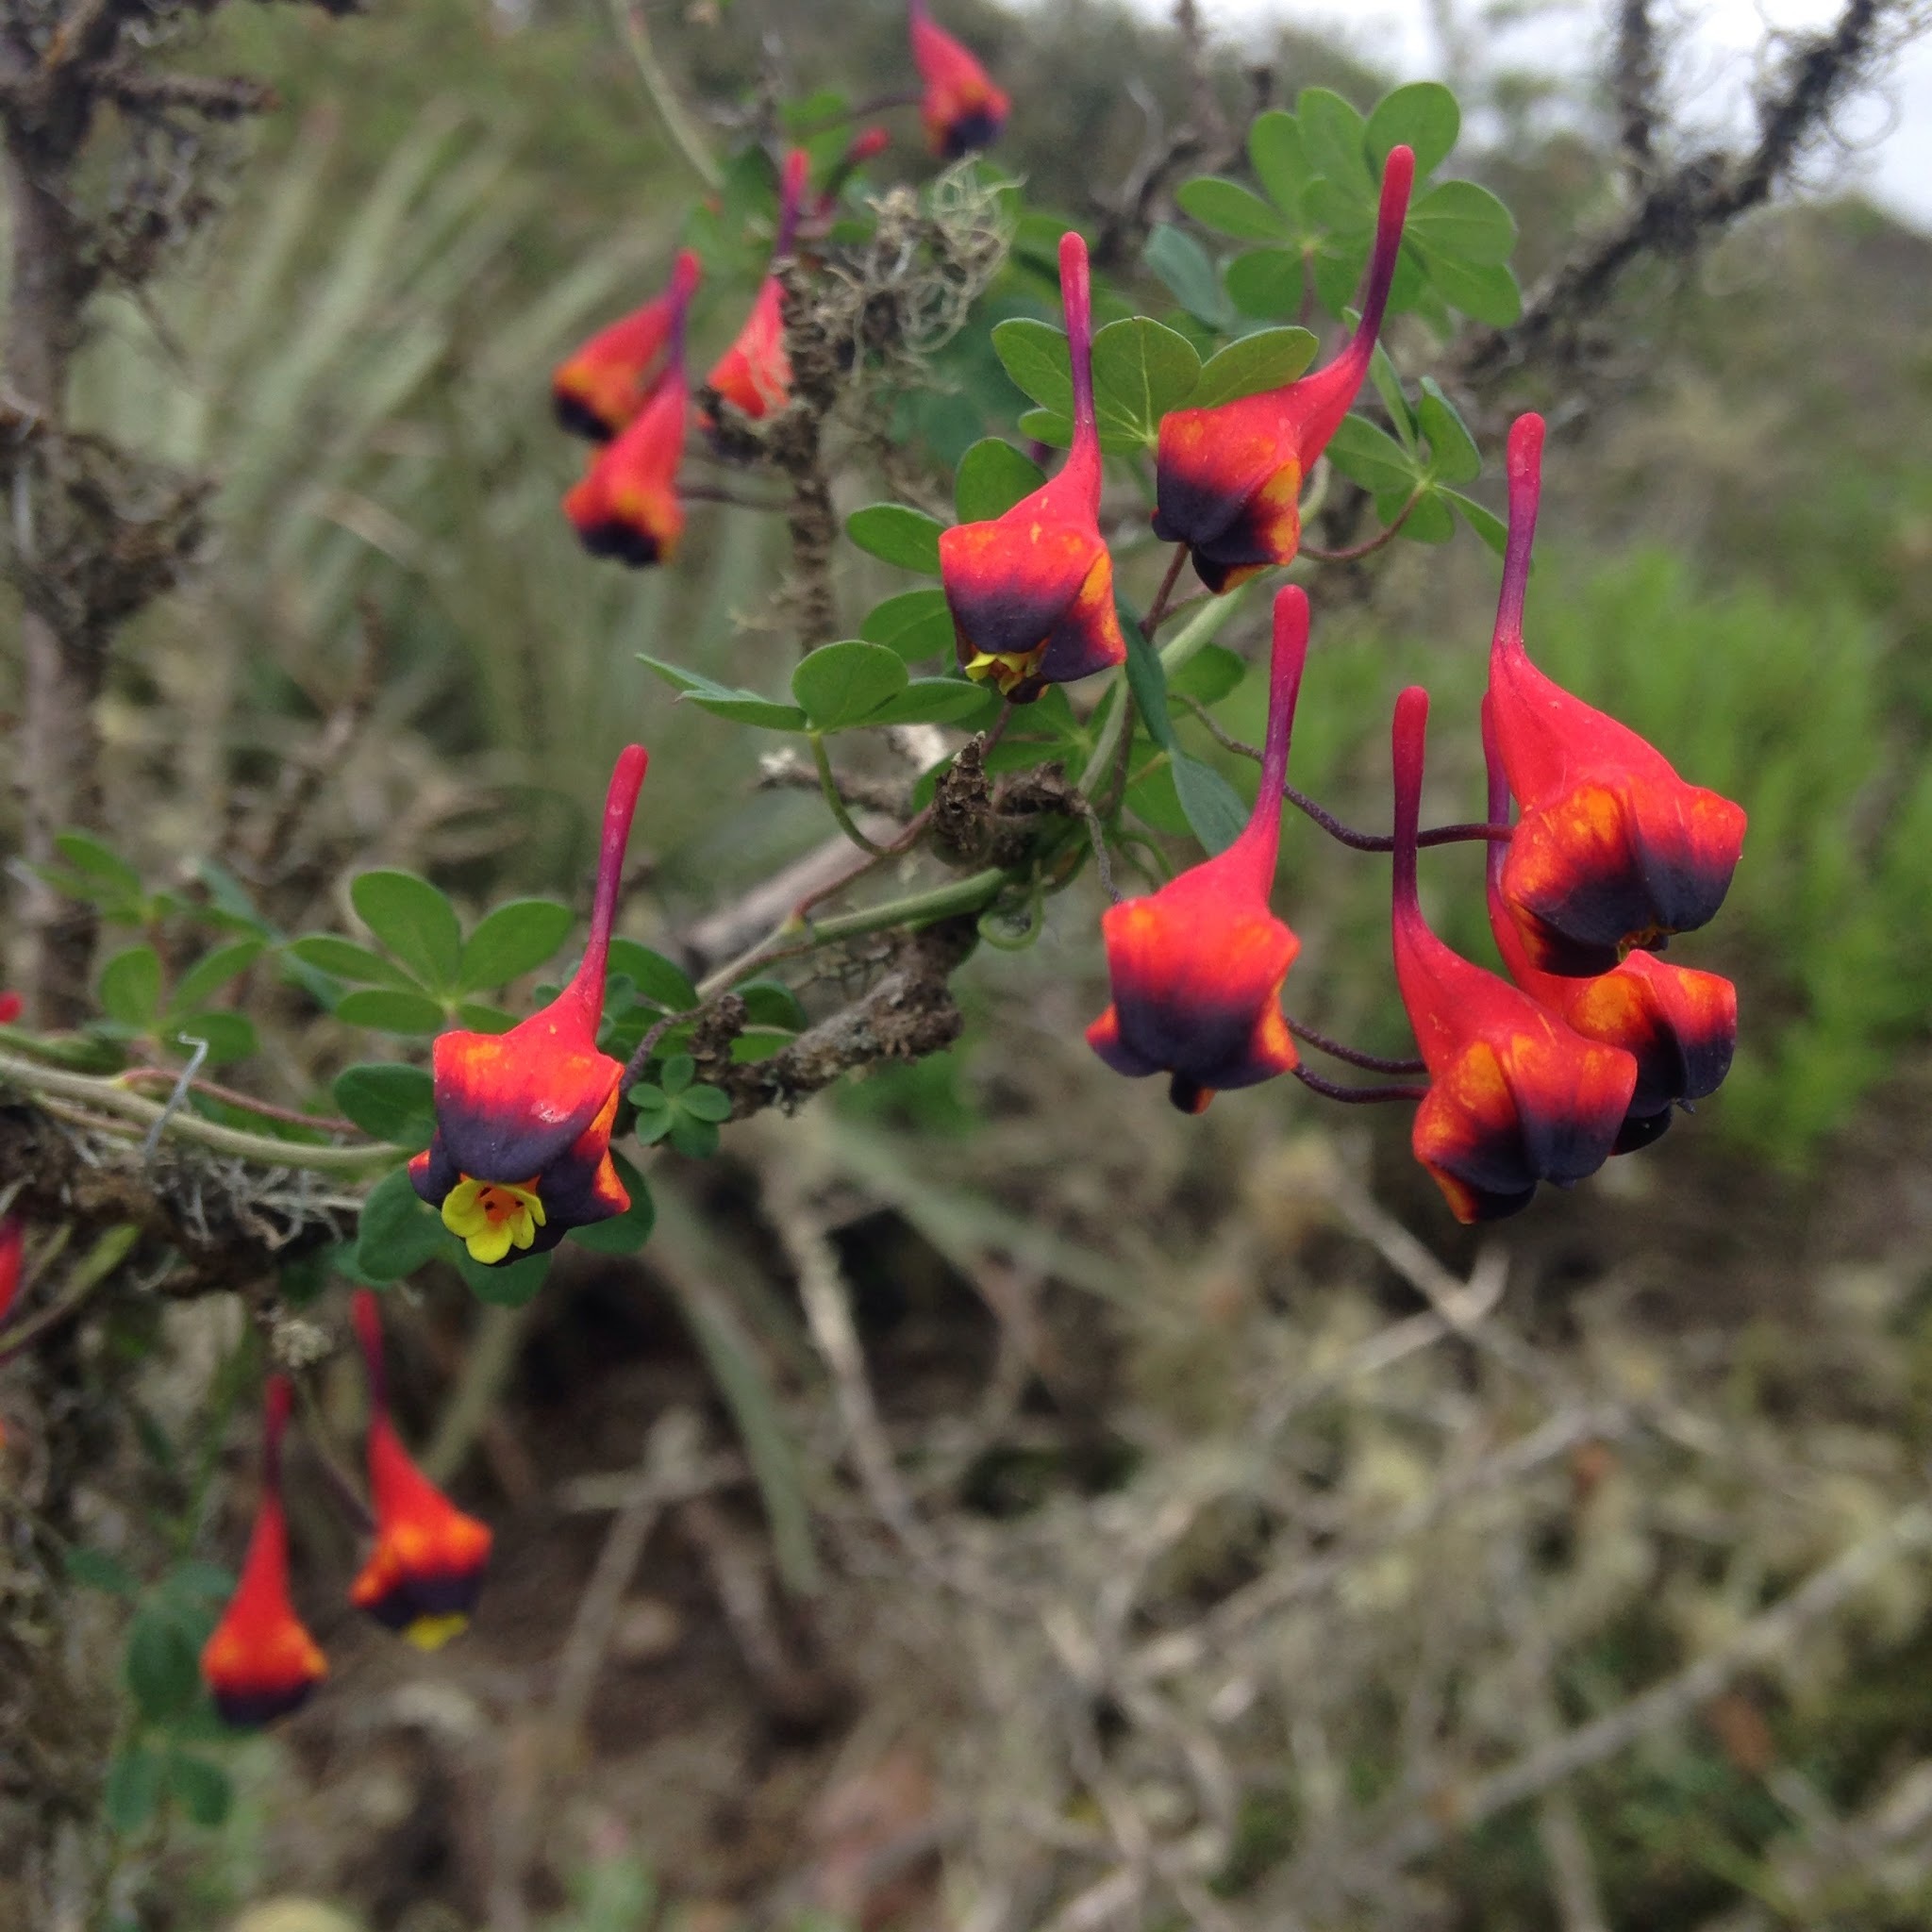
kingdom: Plantae
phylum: Tracheophyta
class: Magnoliopsida
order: Brassicales
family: Tropaeolaceae
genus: Tropaeolum
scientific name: Tropaeolum tricolor
